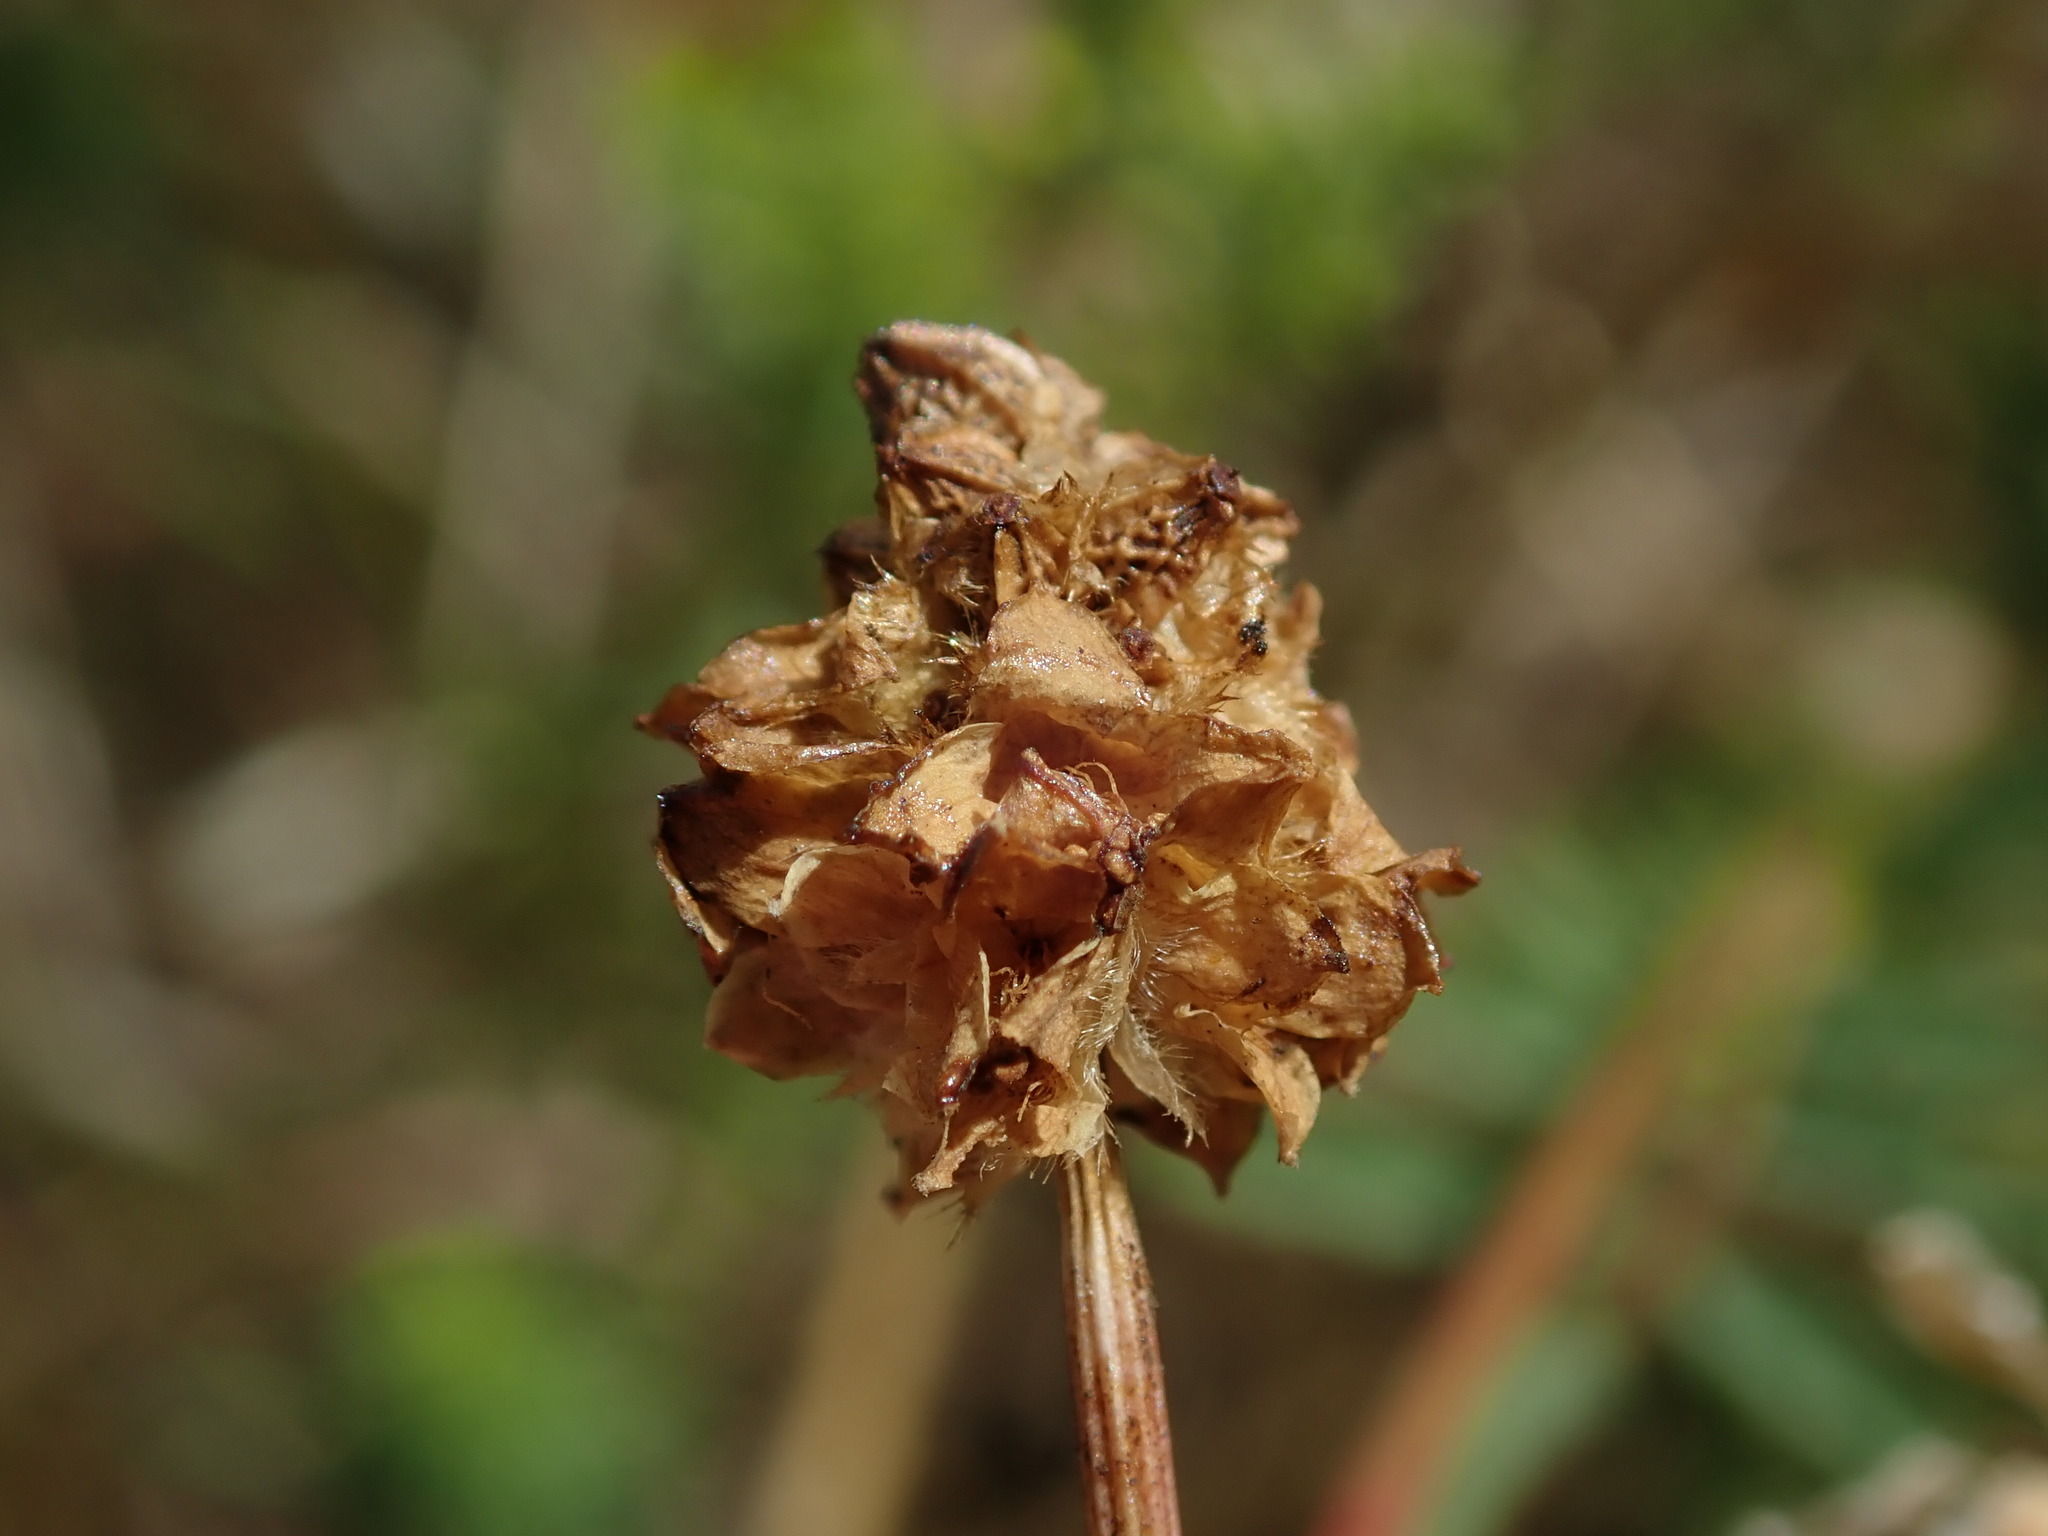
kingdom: Plantae
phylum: Tracheophyta
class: Magnoliopsida
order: Rosales
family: Rosaceae
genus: Poterium
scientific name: Poterium sanguisorba
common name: Salad burnet
